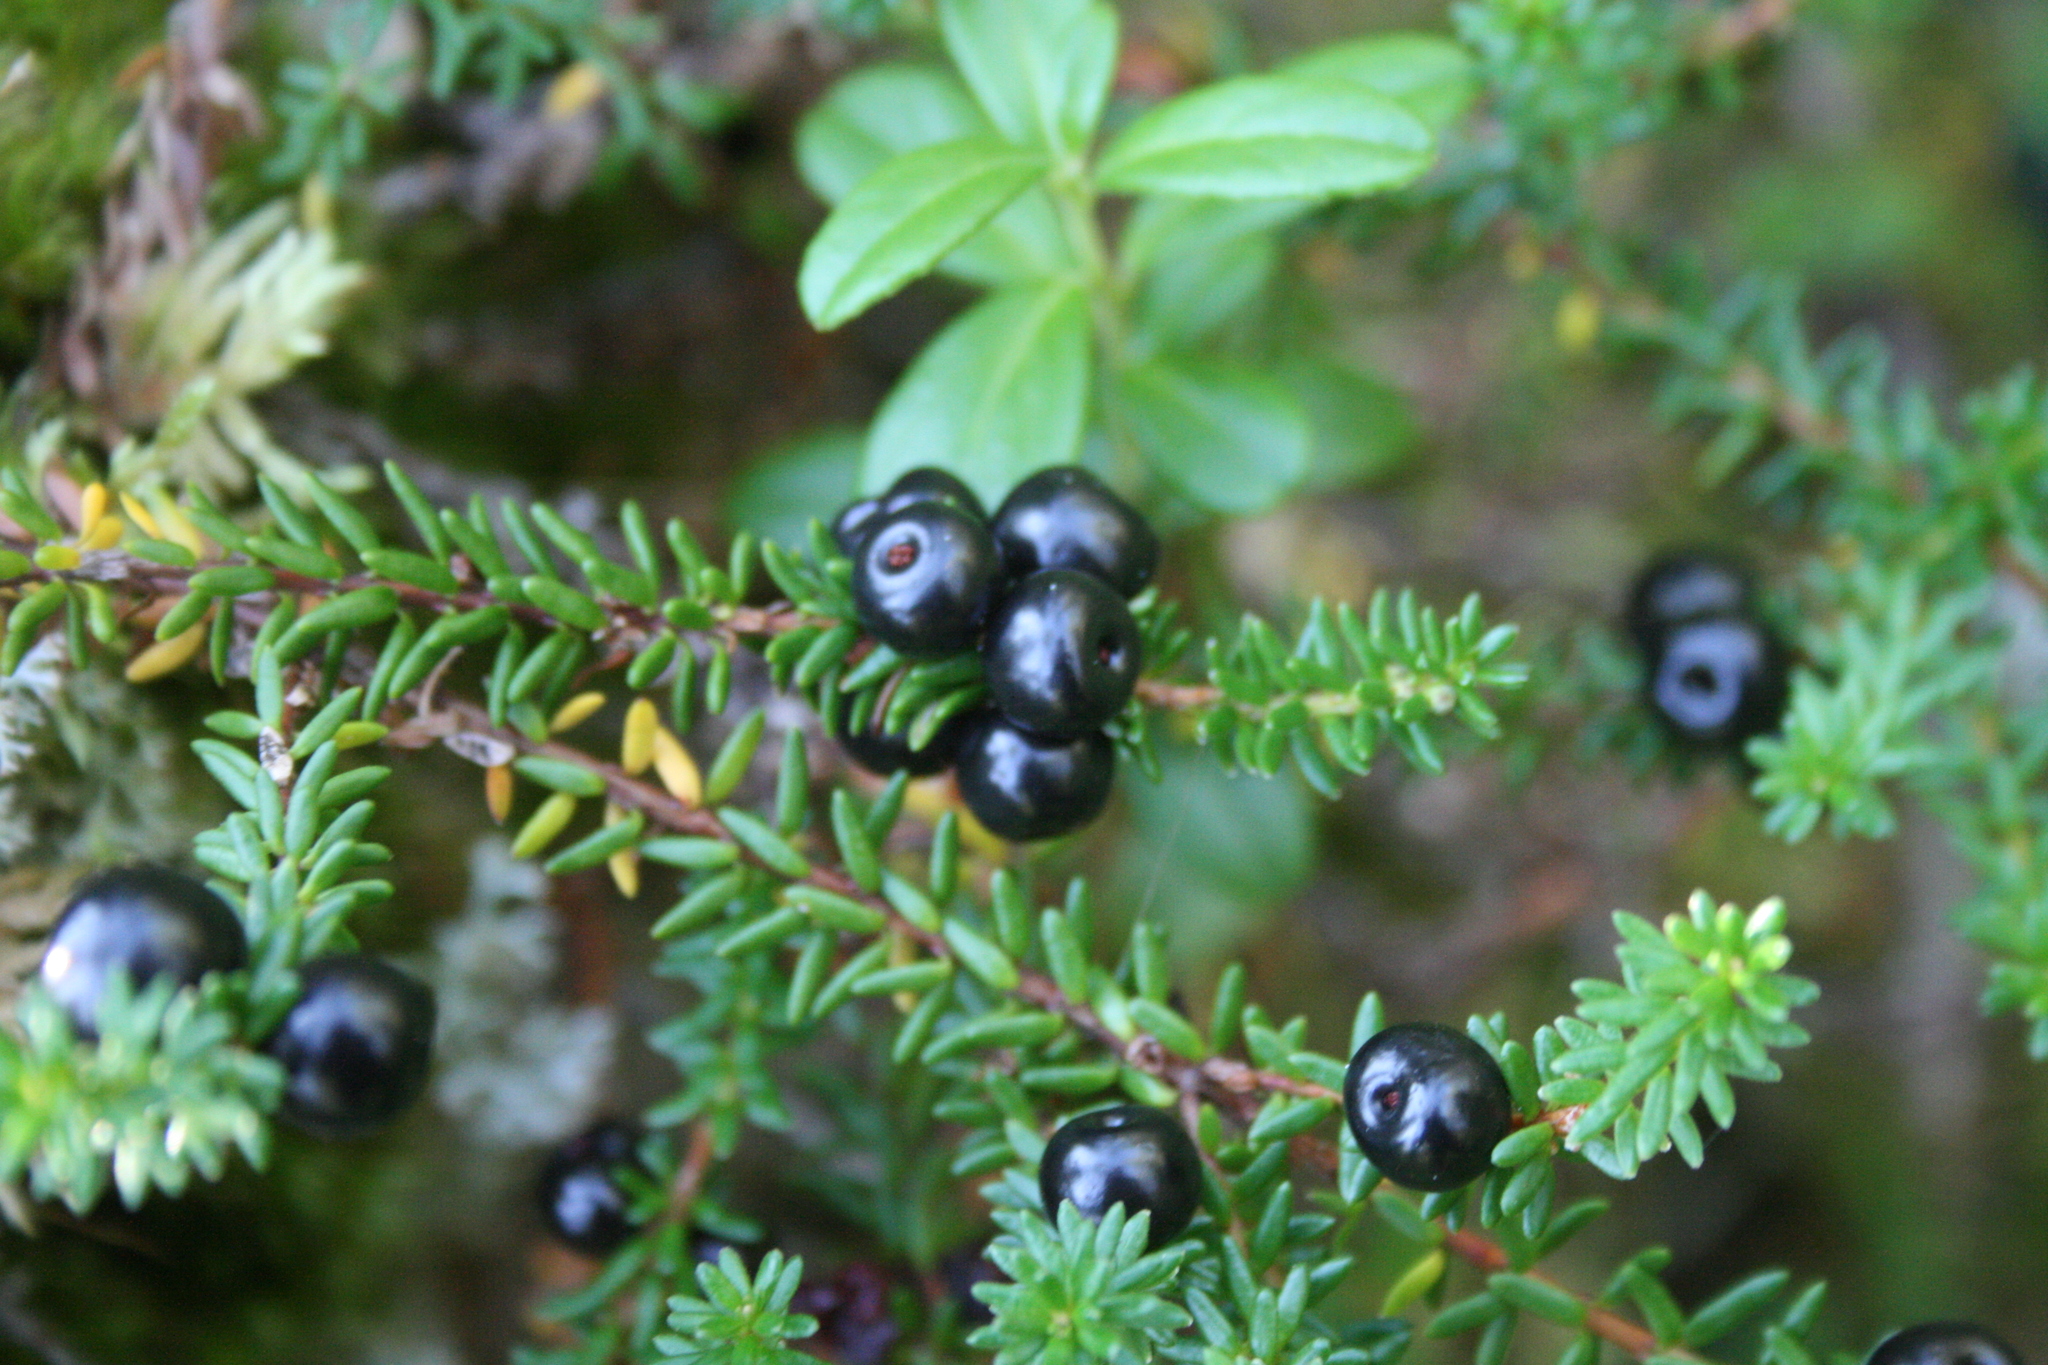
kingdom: Plantae
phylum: Tracheophyta
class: Magnoliopsida
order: Ericales
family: Ericaceae
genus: Empetrum
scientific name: Empetrum nigrum
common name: Black crowberry
